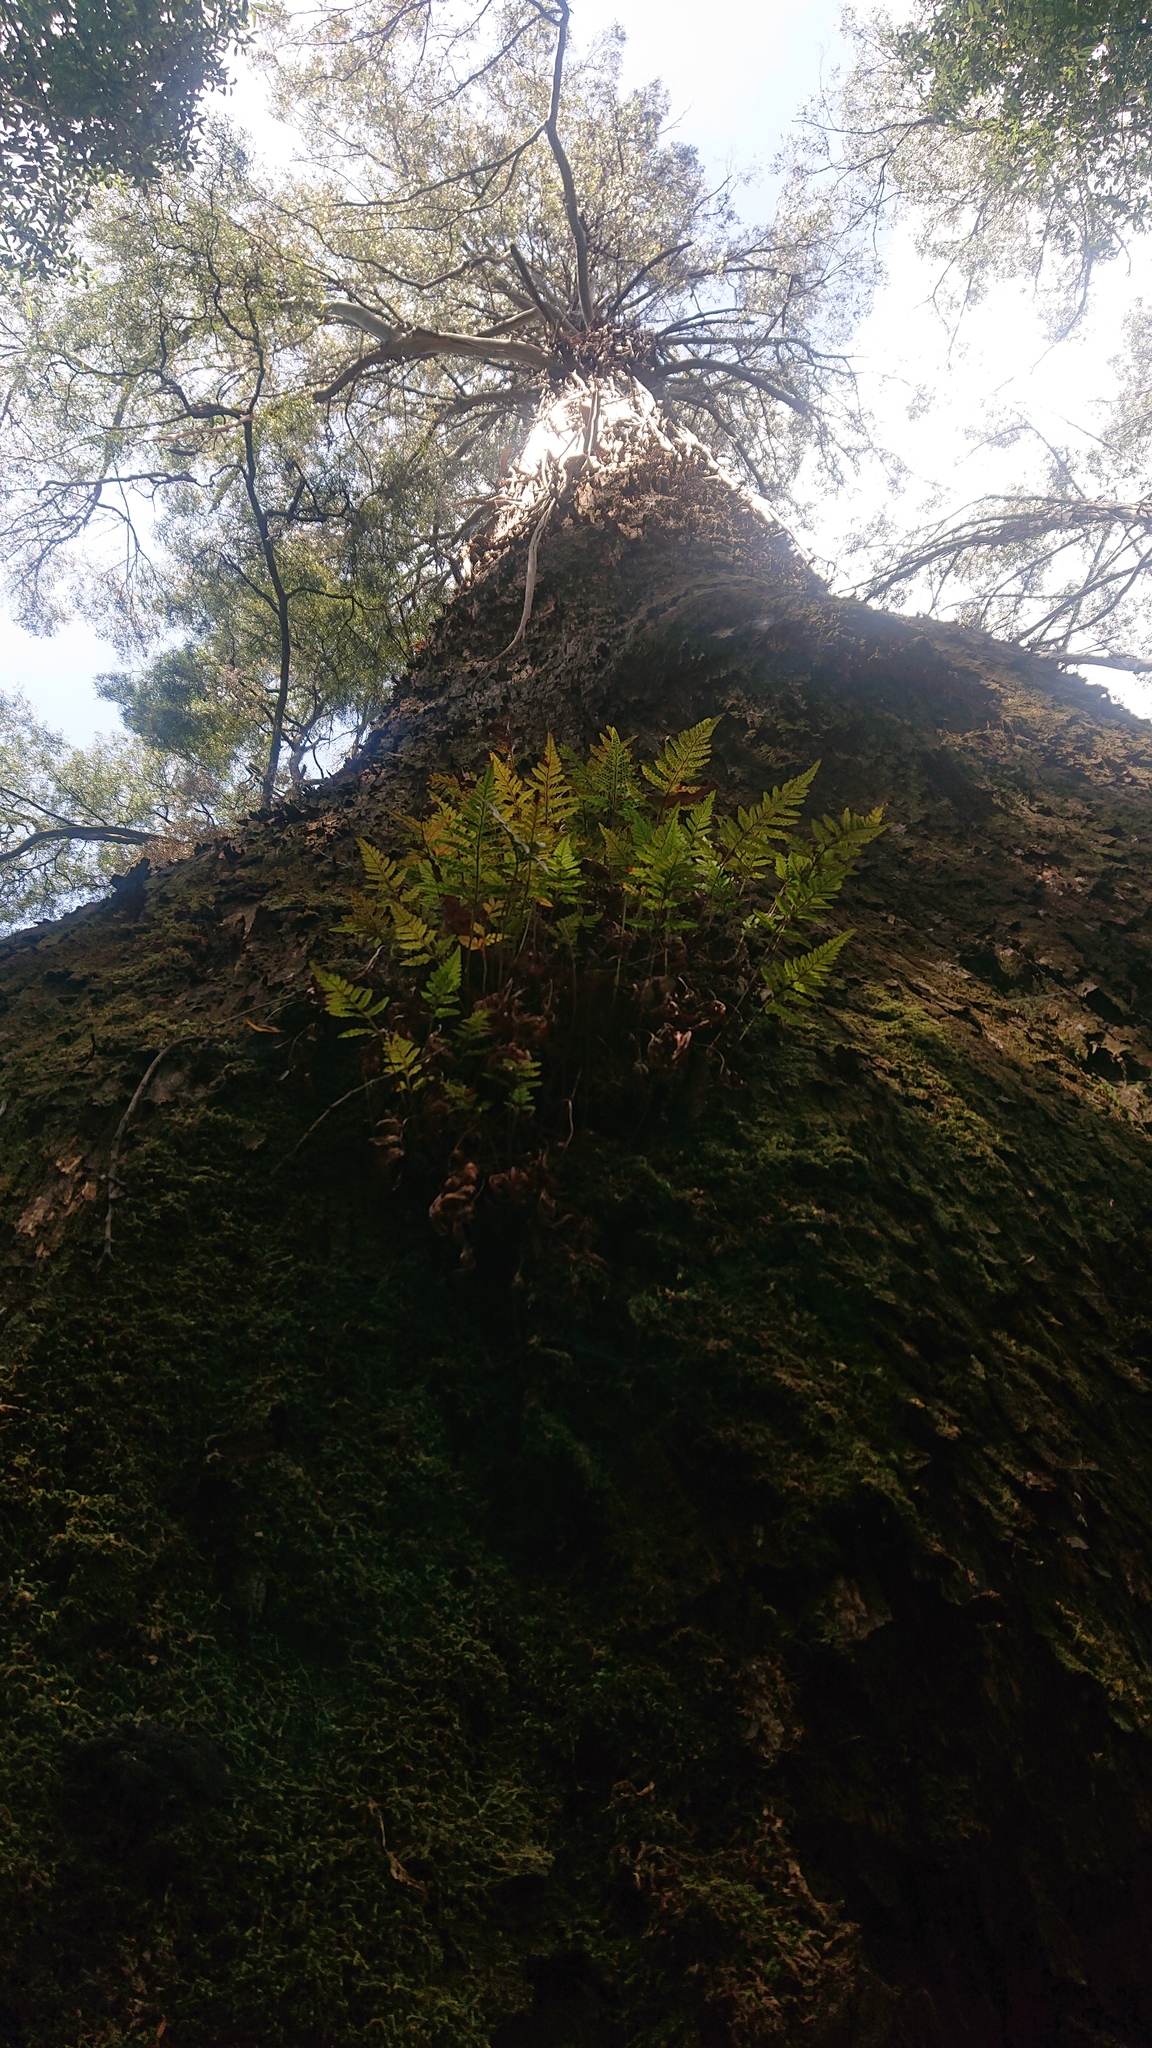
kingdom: Plantae
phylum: Tracheophyta
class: Magnoliopsida
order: Myrtales
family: Myrtaceae
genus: Eucalyptus
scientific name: Eucalyptus regnans
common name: Stringy gum
